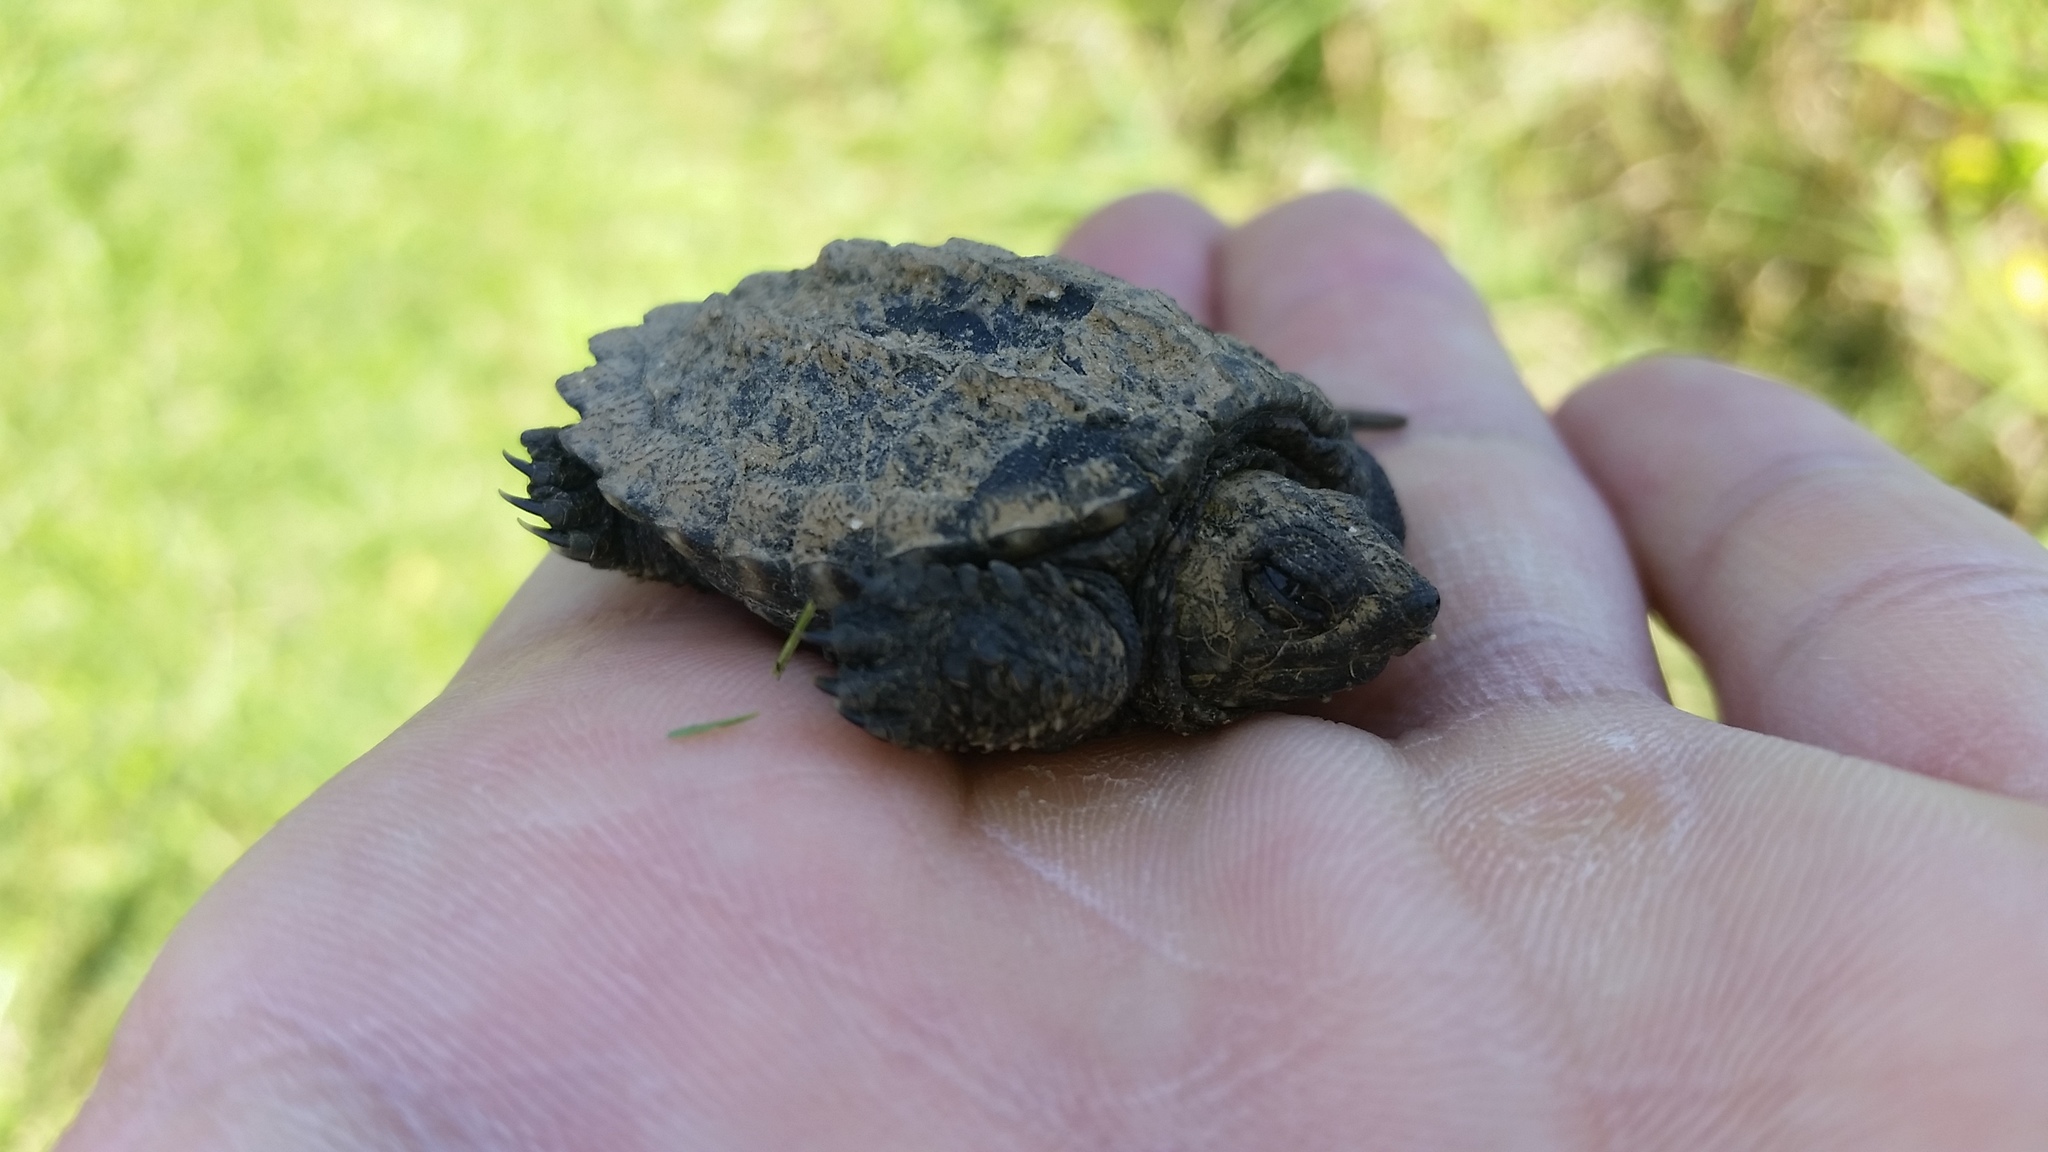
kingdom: Animalia
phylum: Chordata
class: Testudines
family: Chelydridae
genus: Chelydra
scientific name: Chelydra serpentina
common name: Common snapping turtle
